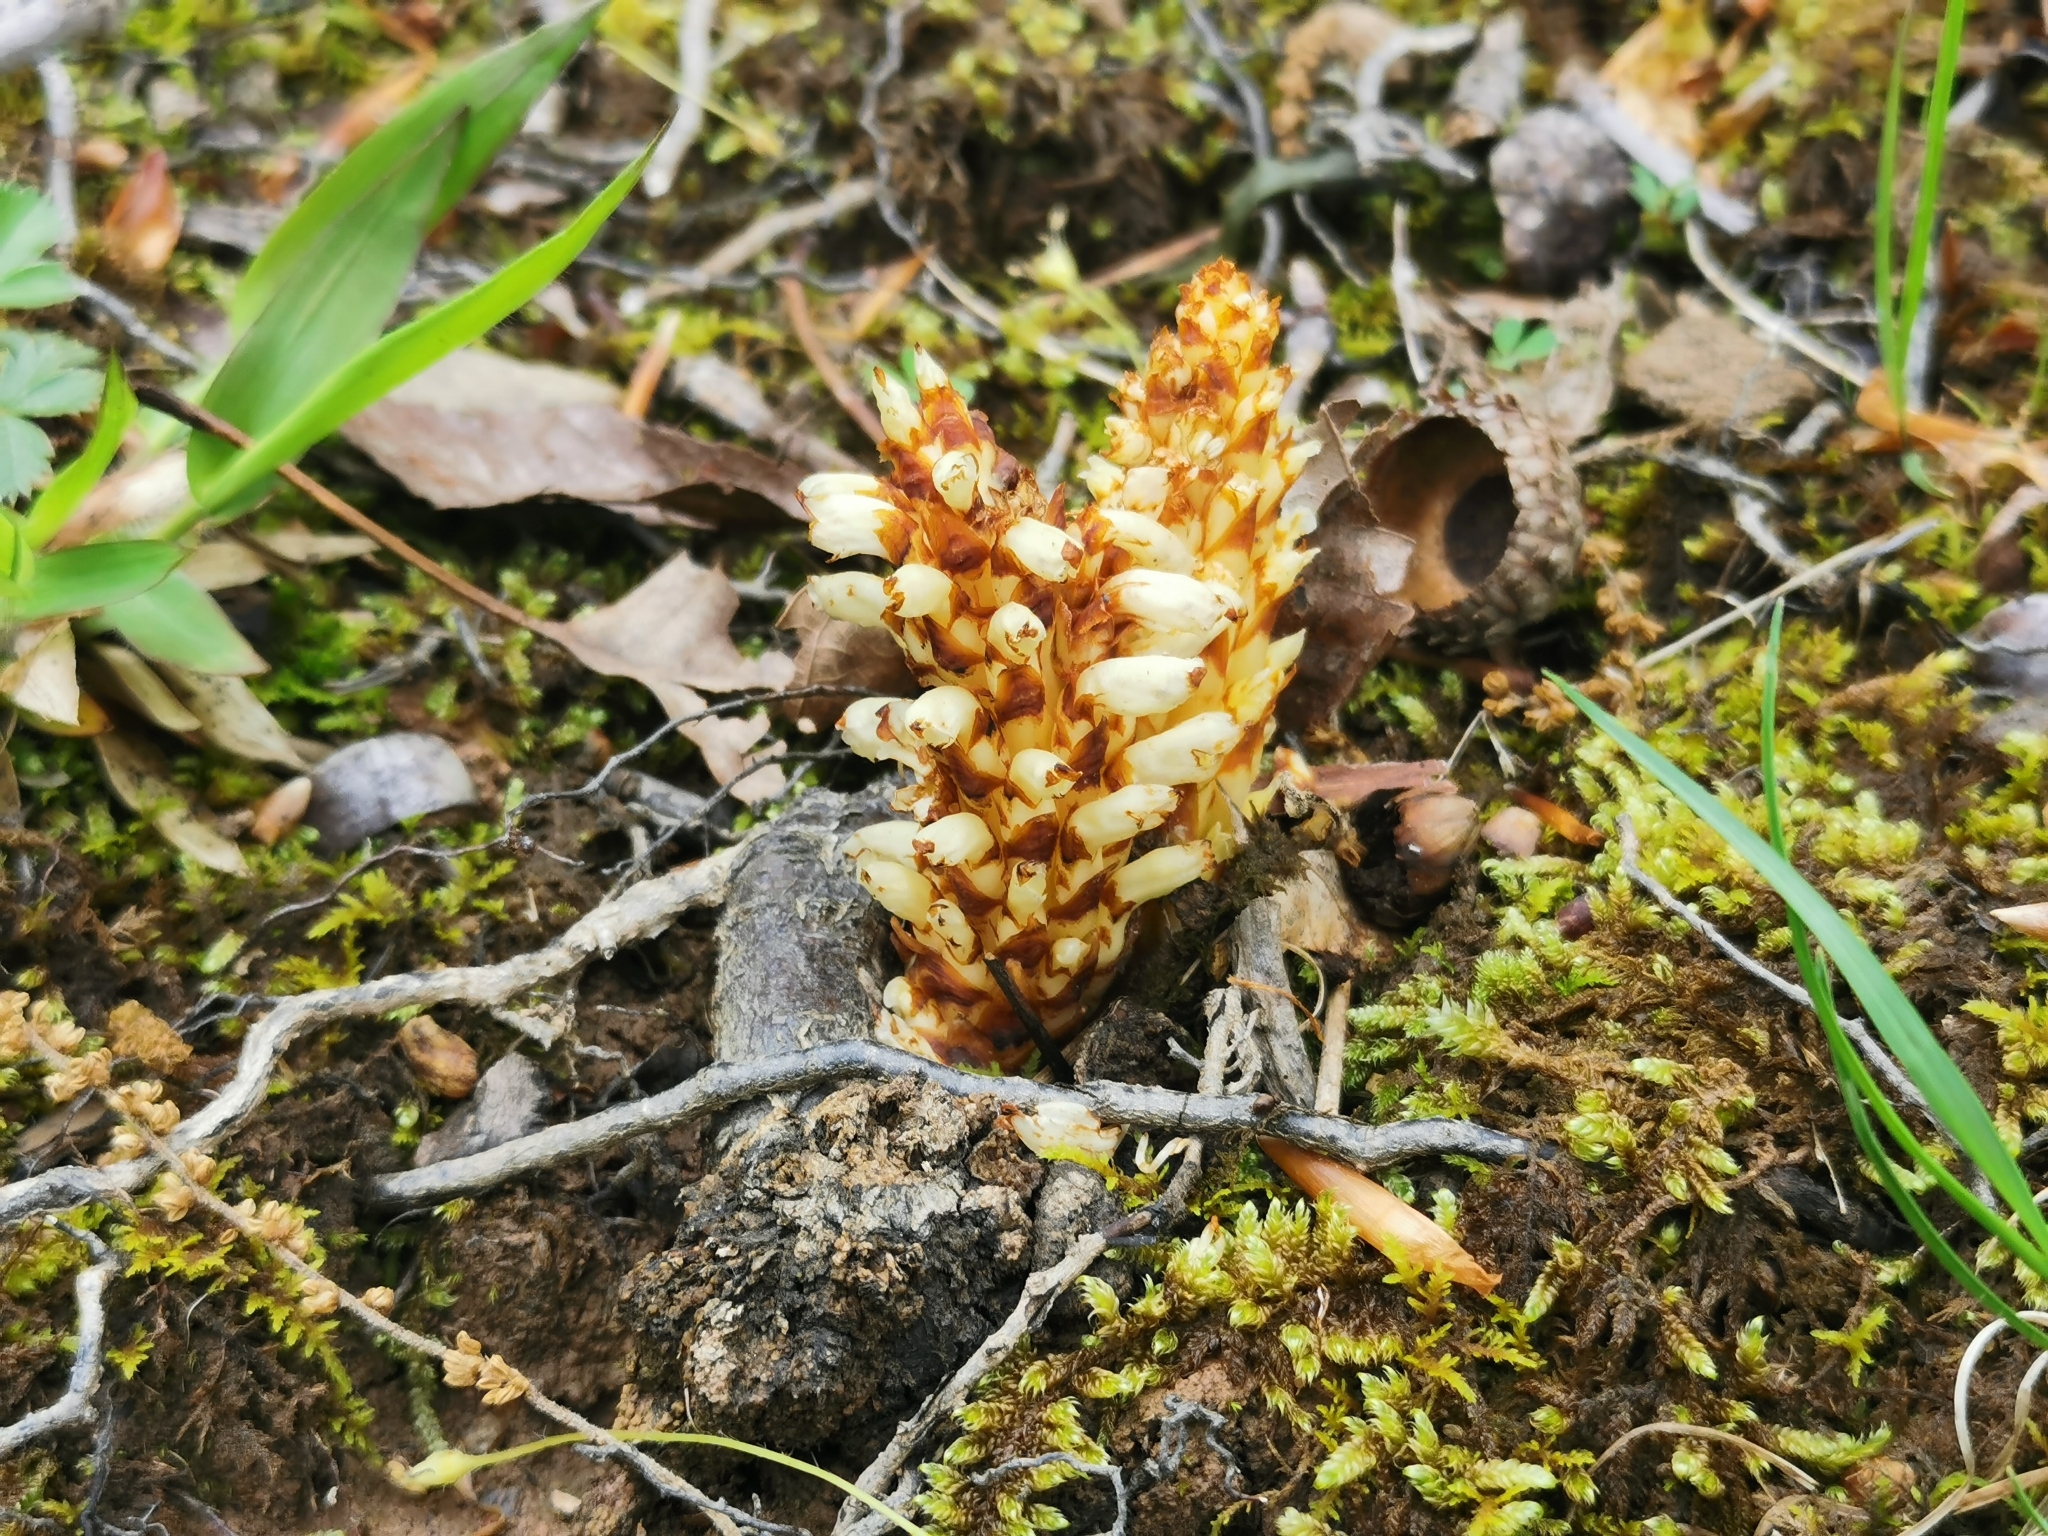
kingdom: Plantae
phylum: Tracheophyta
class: Magnoliopsida
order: Lamiales
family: Orobanchaceae
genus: Conopholis
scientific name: Conopholis americana
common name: American cancer-root
